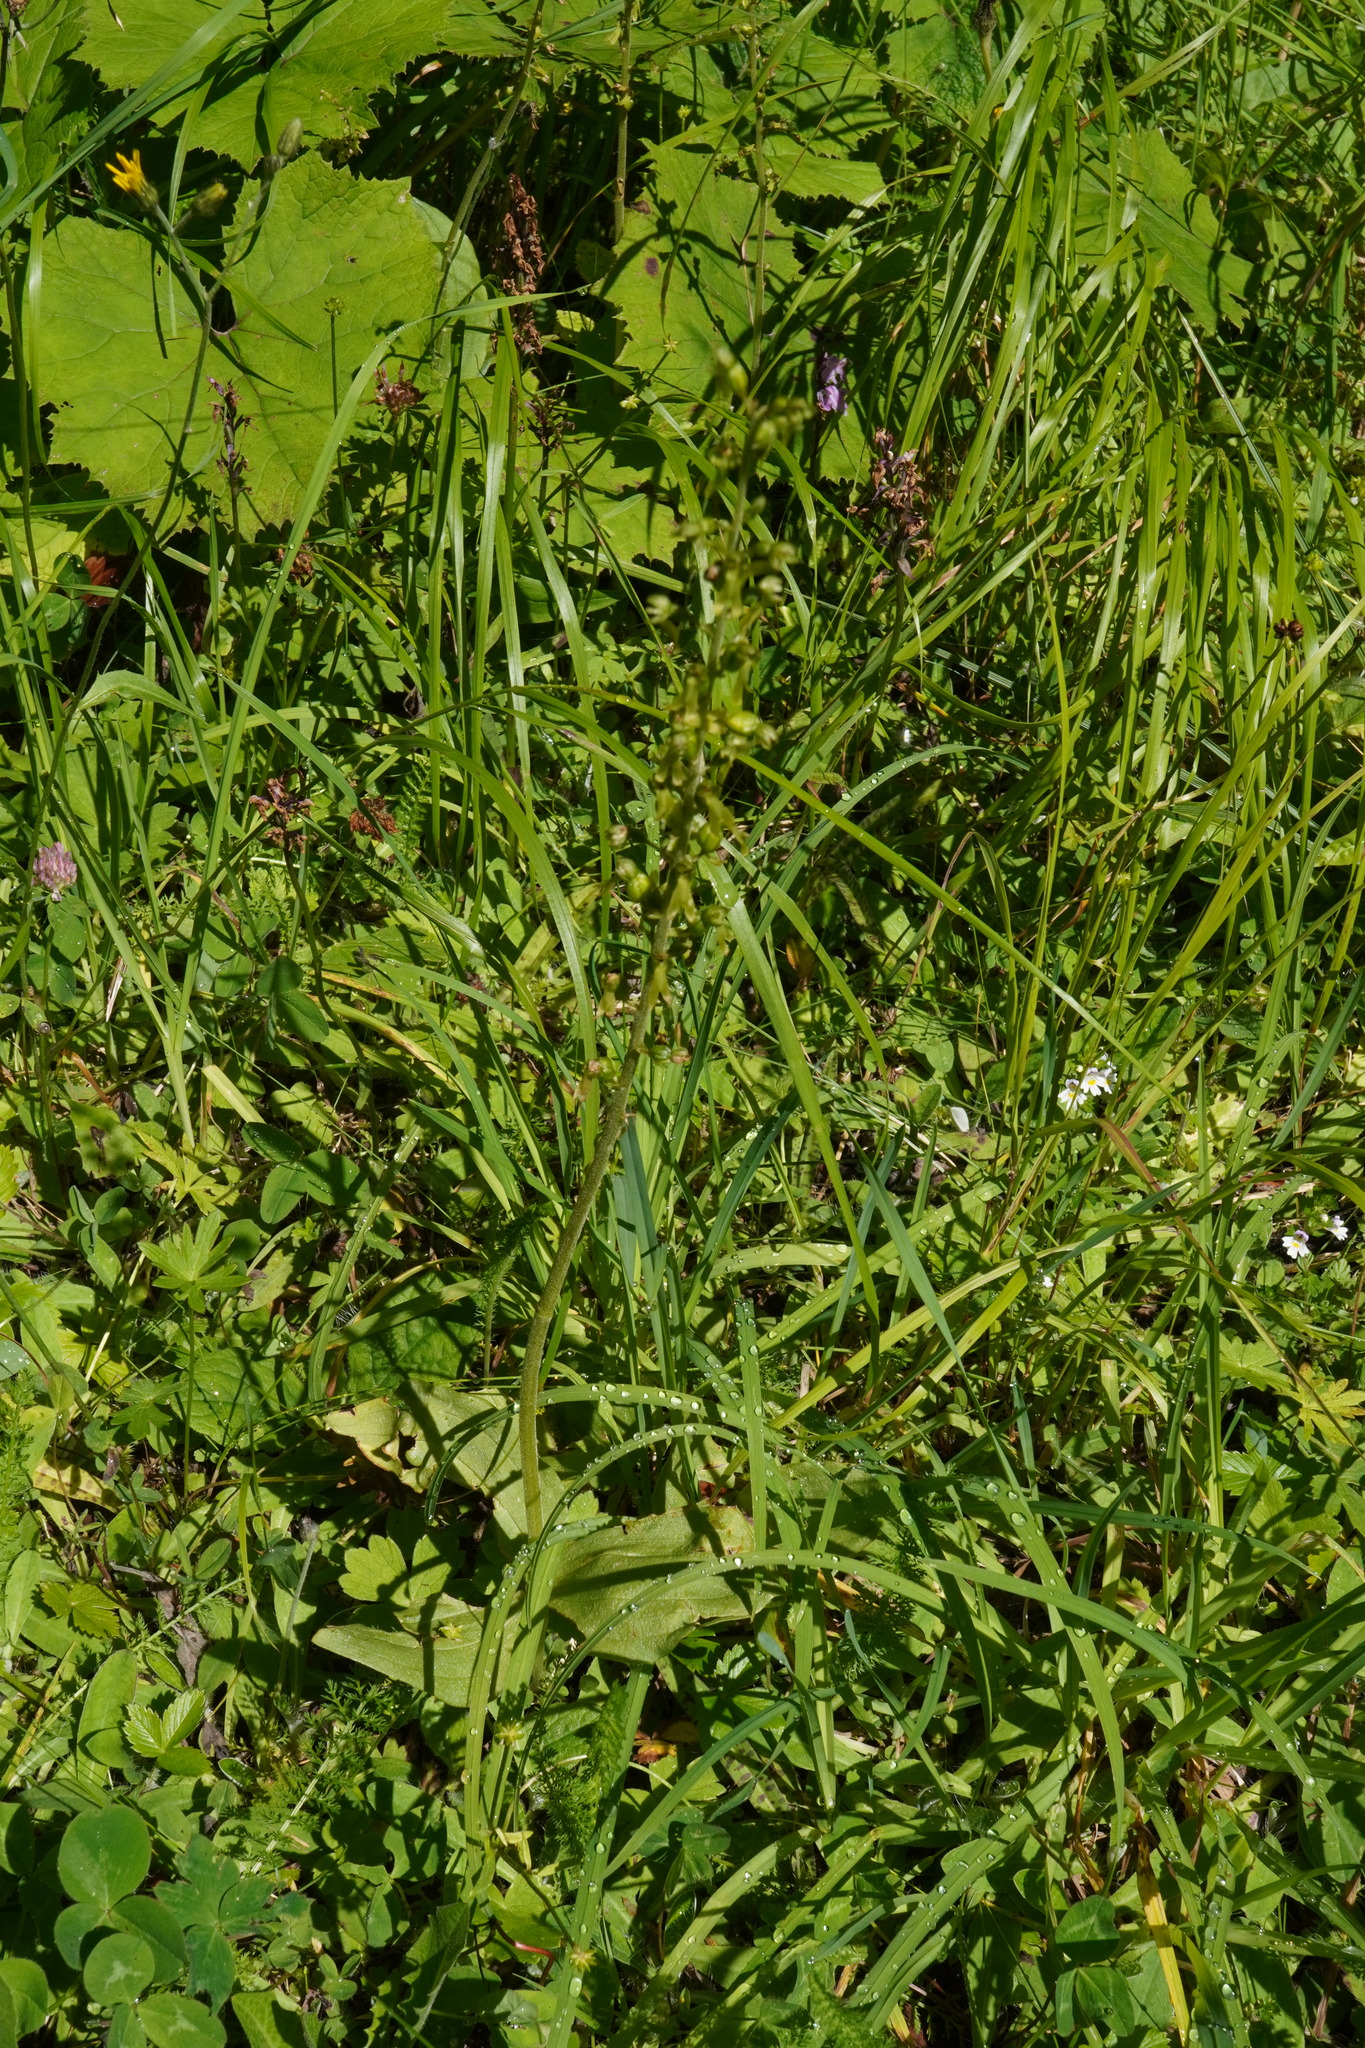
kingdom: Plantae
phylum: Tracheophyta
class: Liliopsida
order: Asparagales
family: Orchidaceae
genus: Neottia
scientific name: Neottia ovata
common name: Common twayblade
